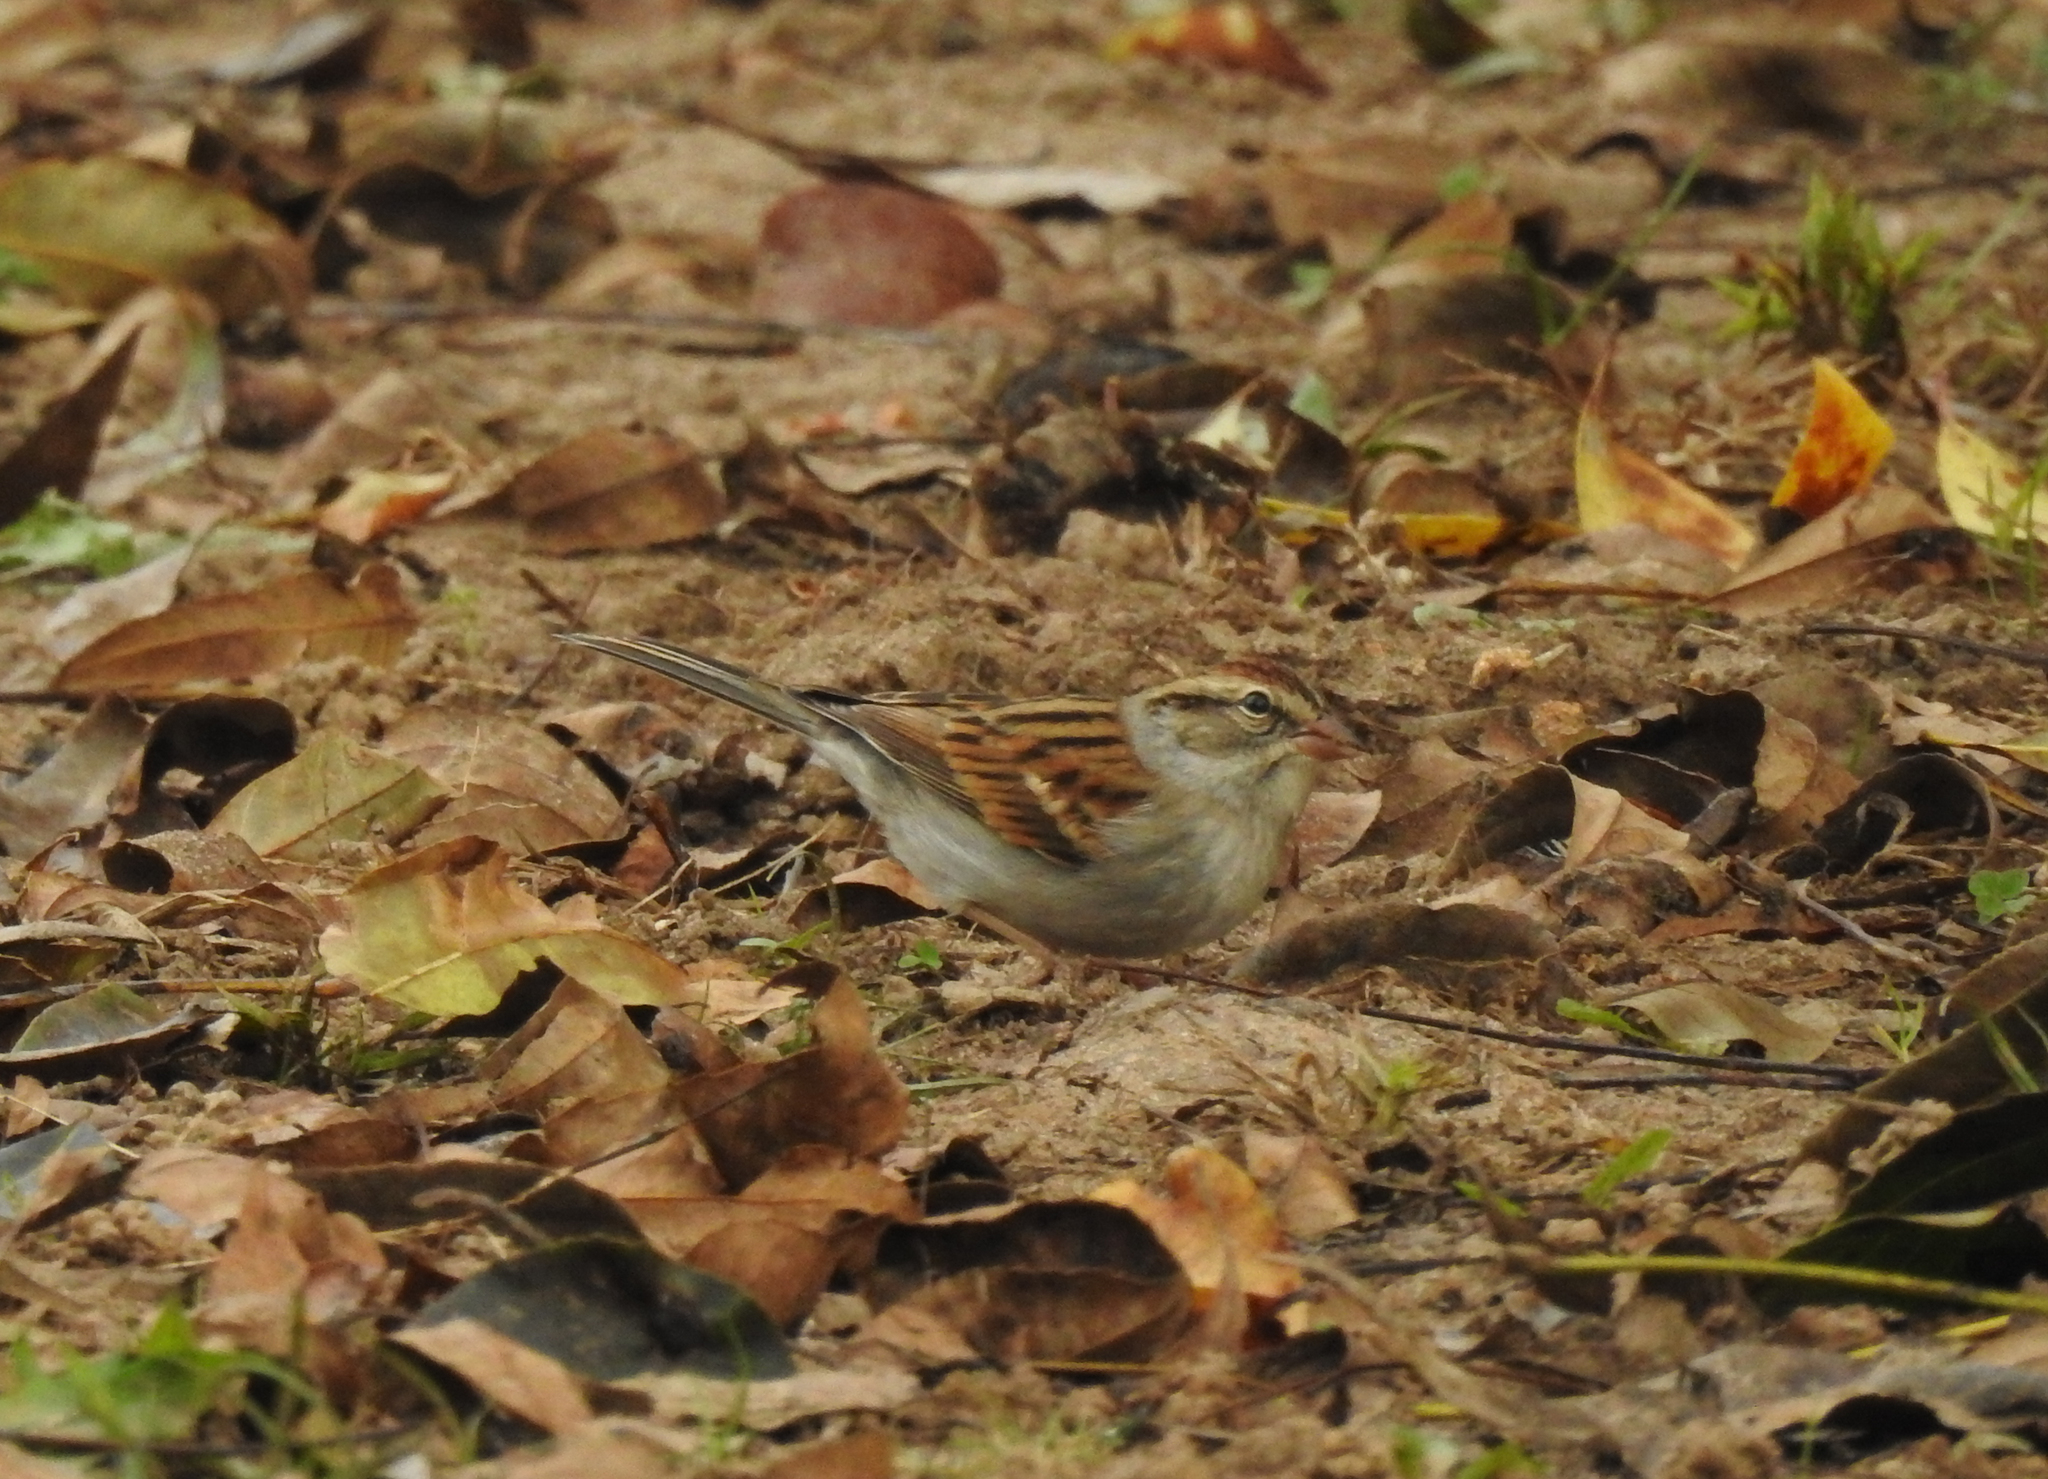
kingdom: Animalia
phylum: Chordata
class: Aves
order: Passeriformes
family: Passerellidae
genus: Spizella
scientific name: Spizella passerina
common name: Chipping sparrow
